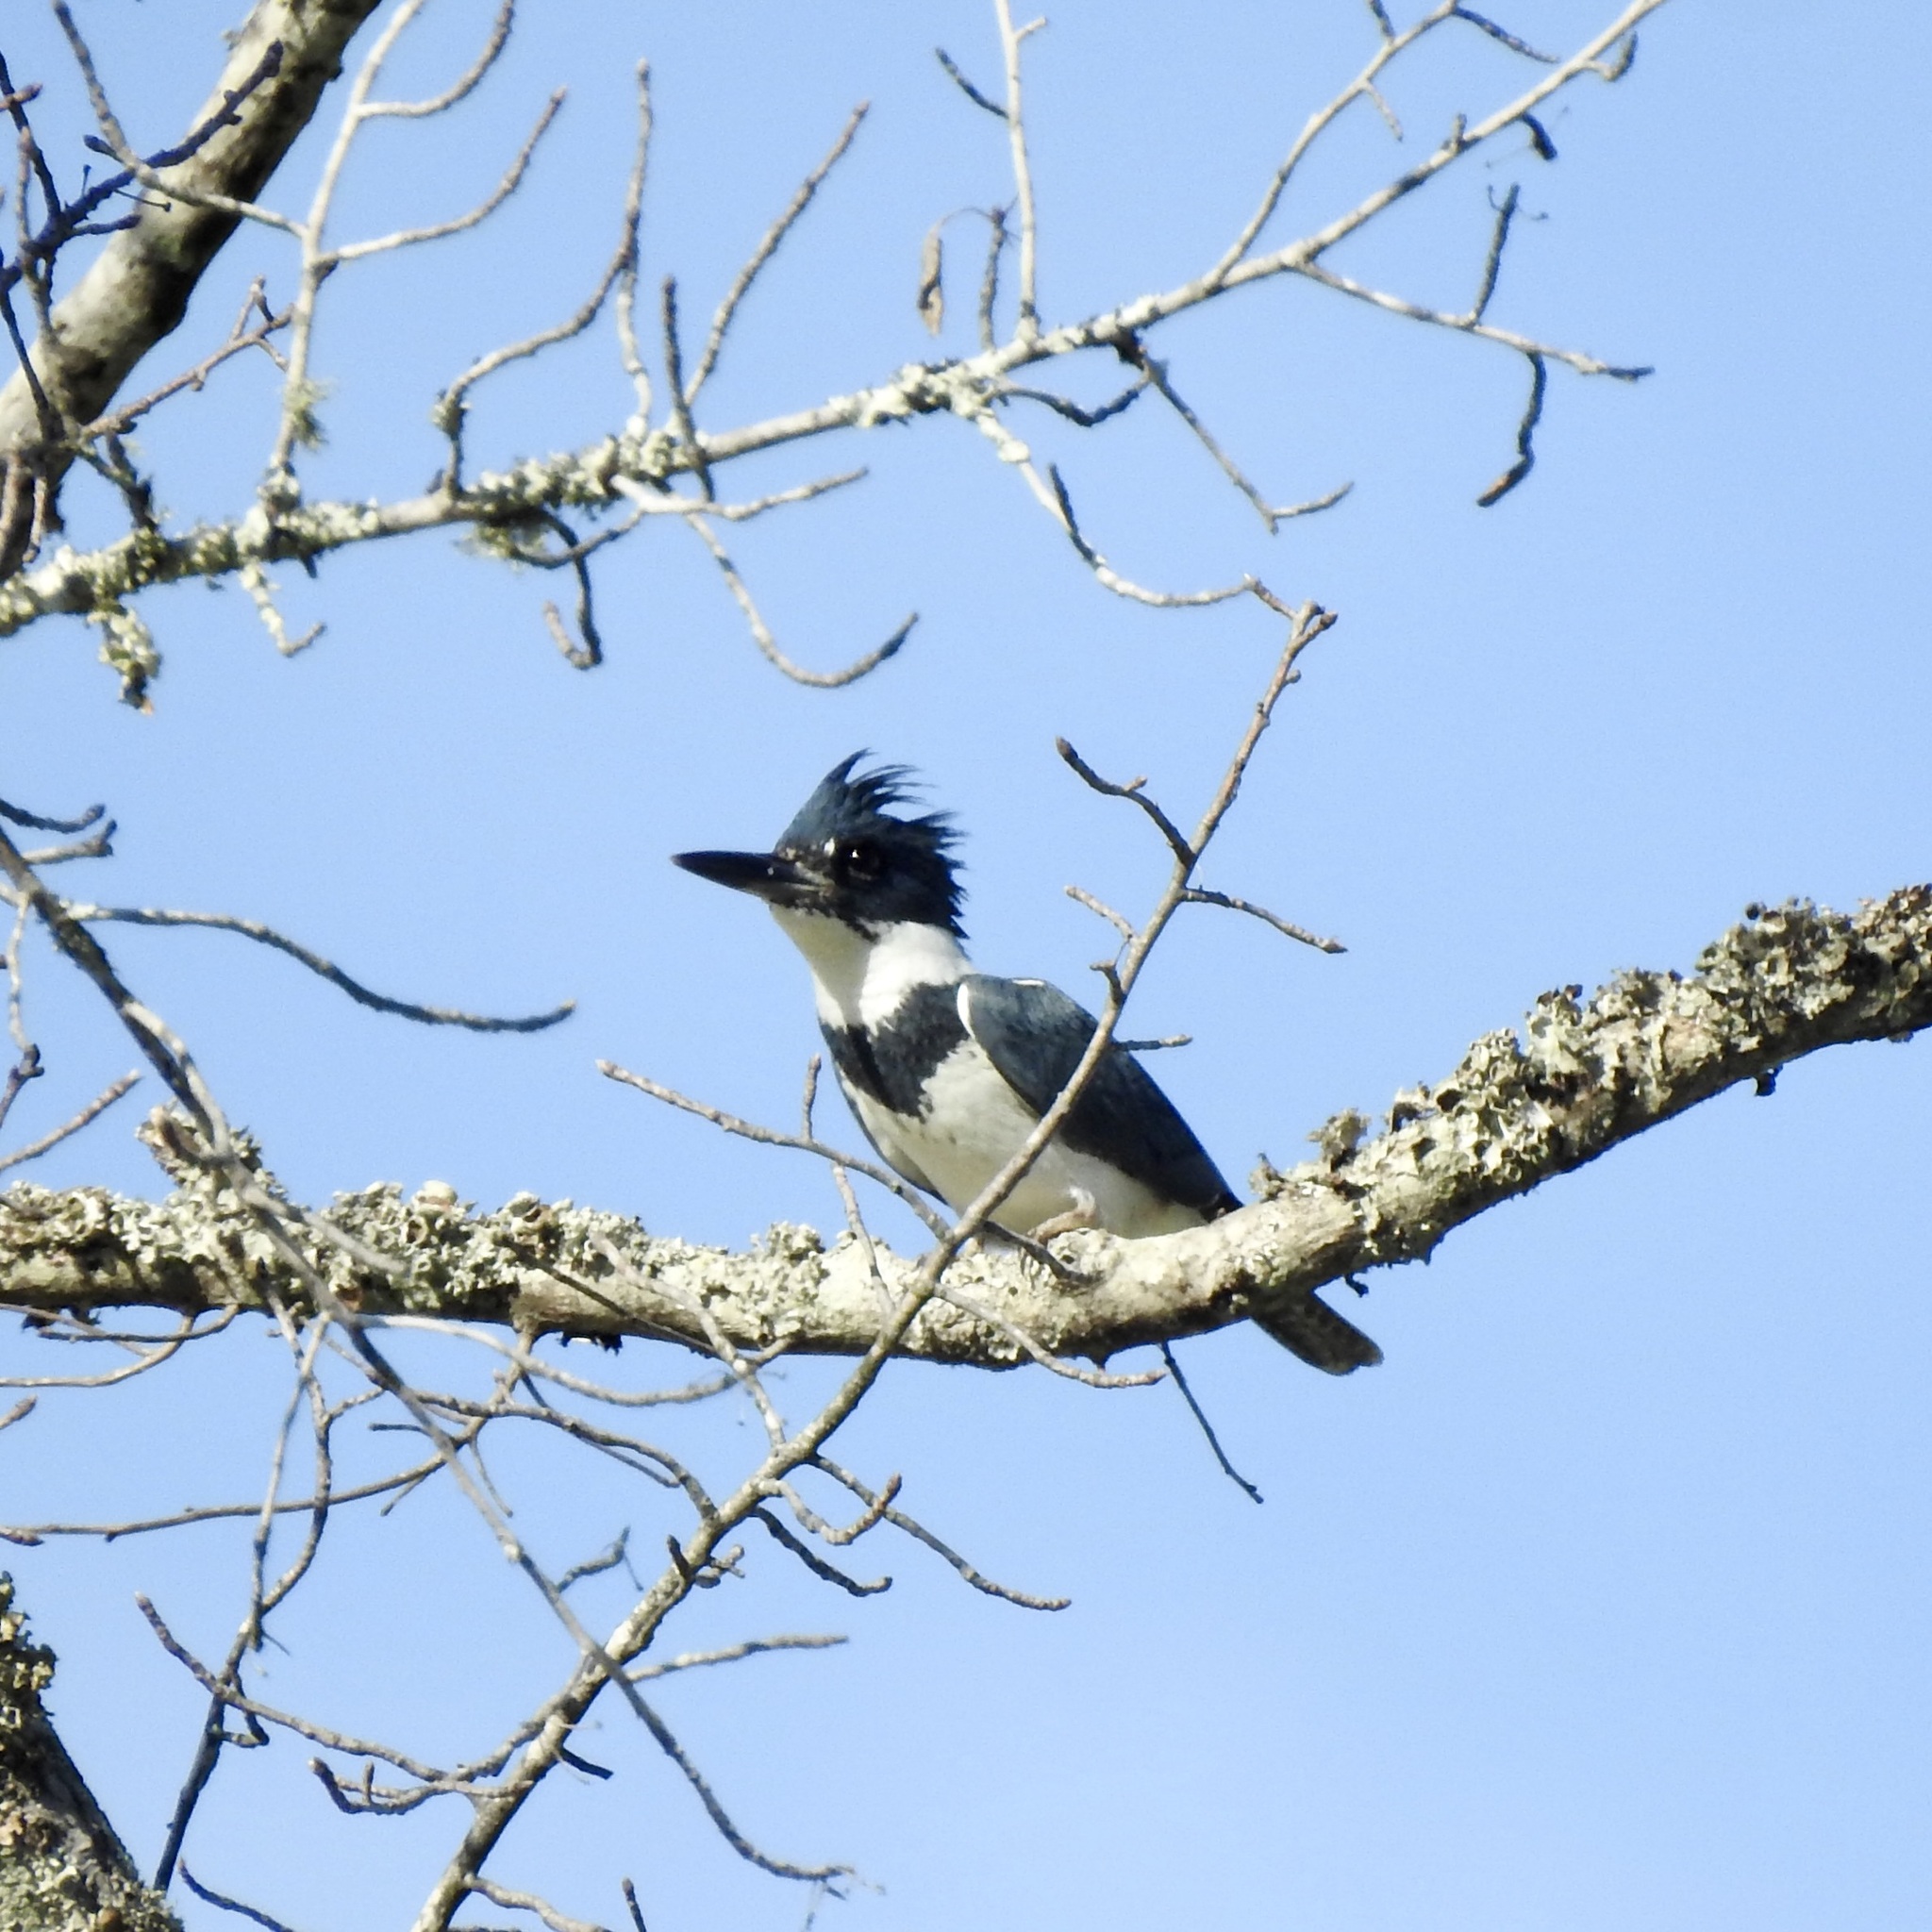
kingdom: Animalia
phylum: Chordata
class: Aves
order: Coraciiformes
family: Alcedinidae
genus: Megaceryle
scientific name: Megaceryle alcyon
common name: Belted kingfisher
